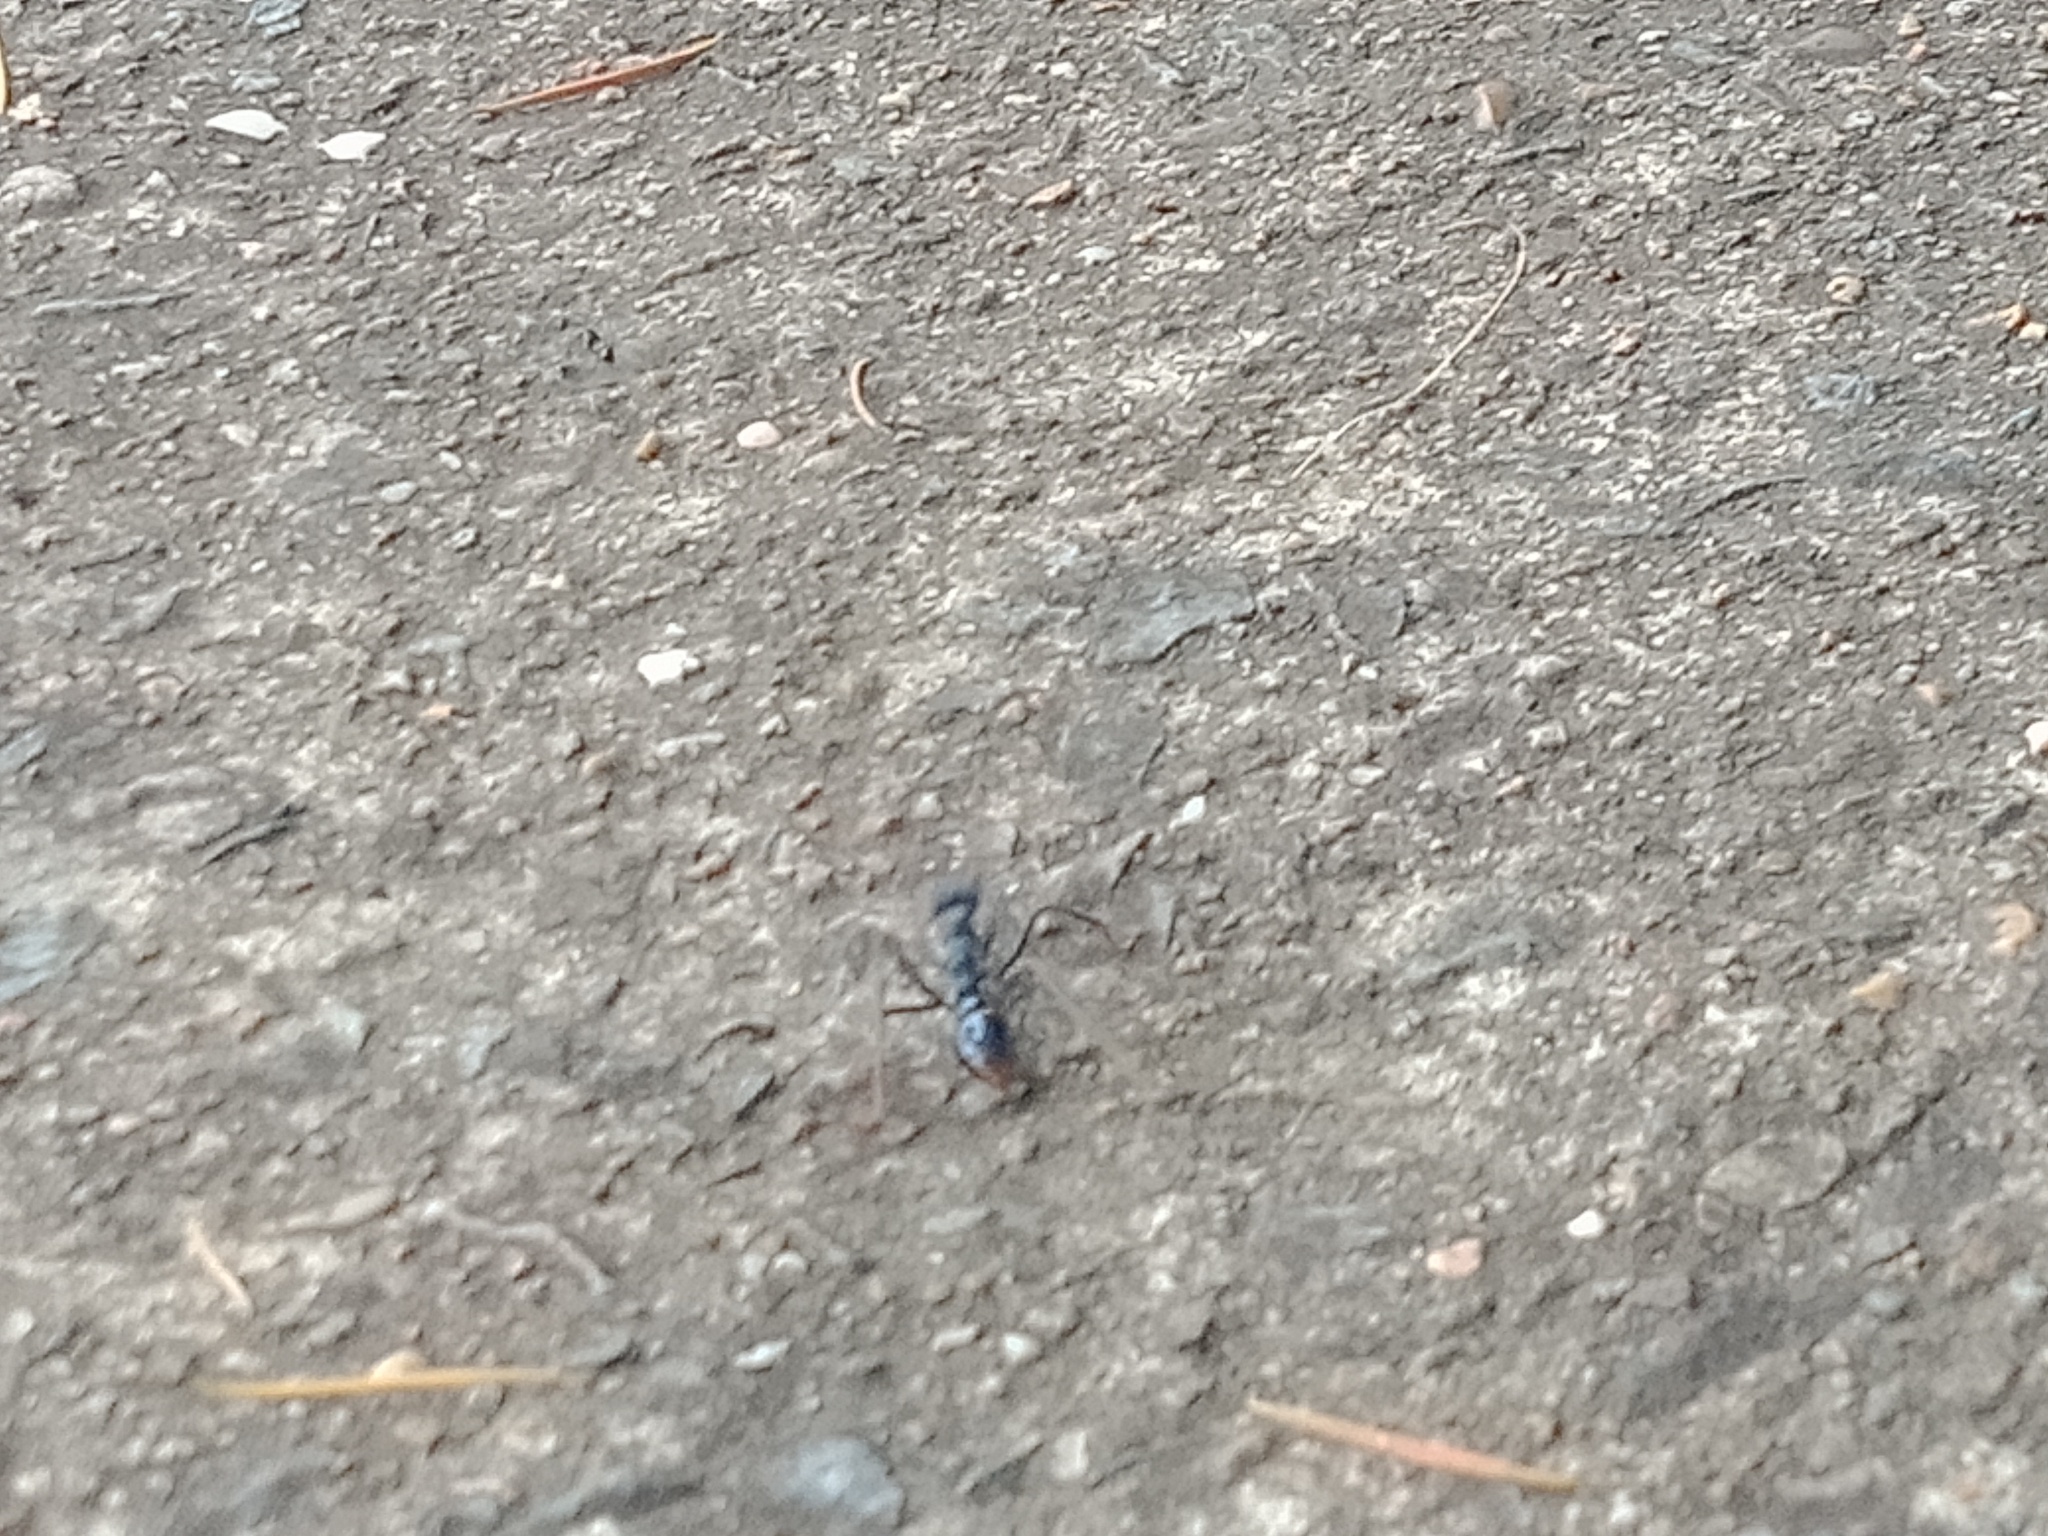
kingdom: Animalia
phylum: Arthropoda
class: Insecta
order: Hymenoptera
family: Formicidae
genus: Myrmecia
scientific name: Myrmecia tarsata
